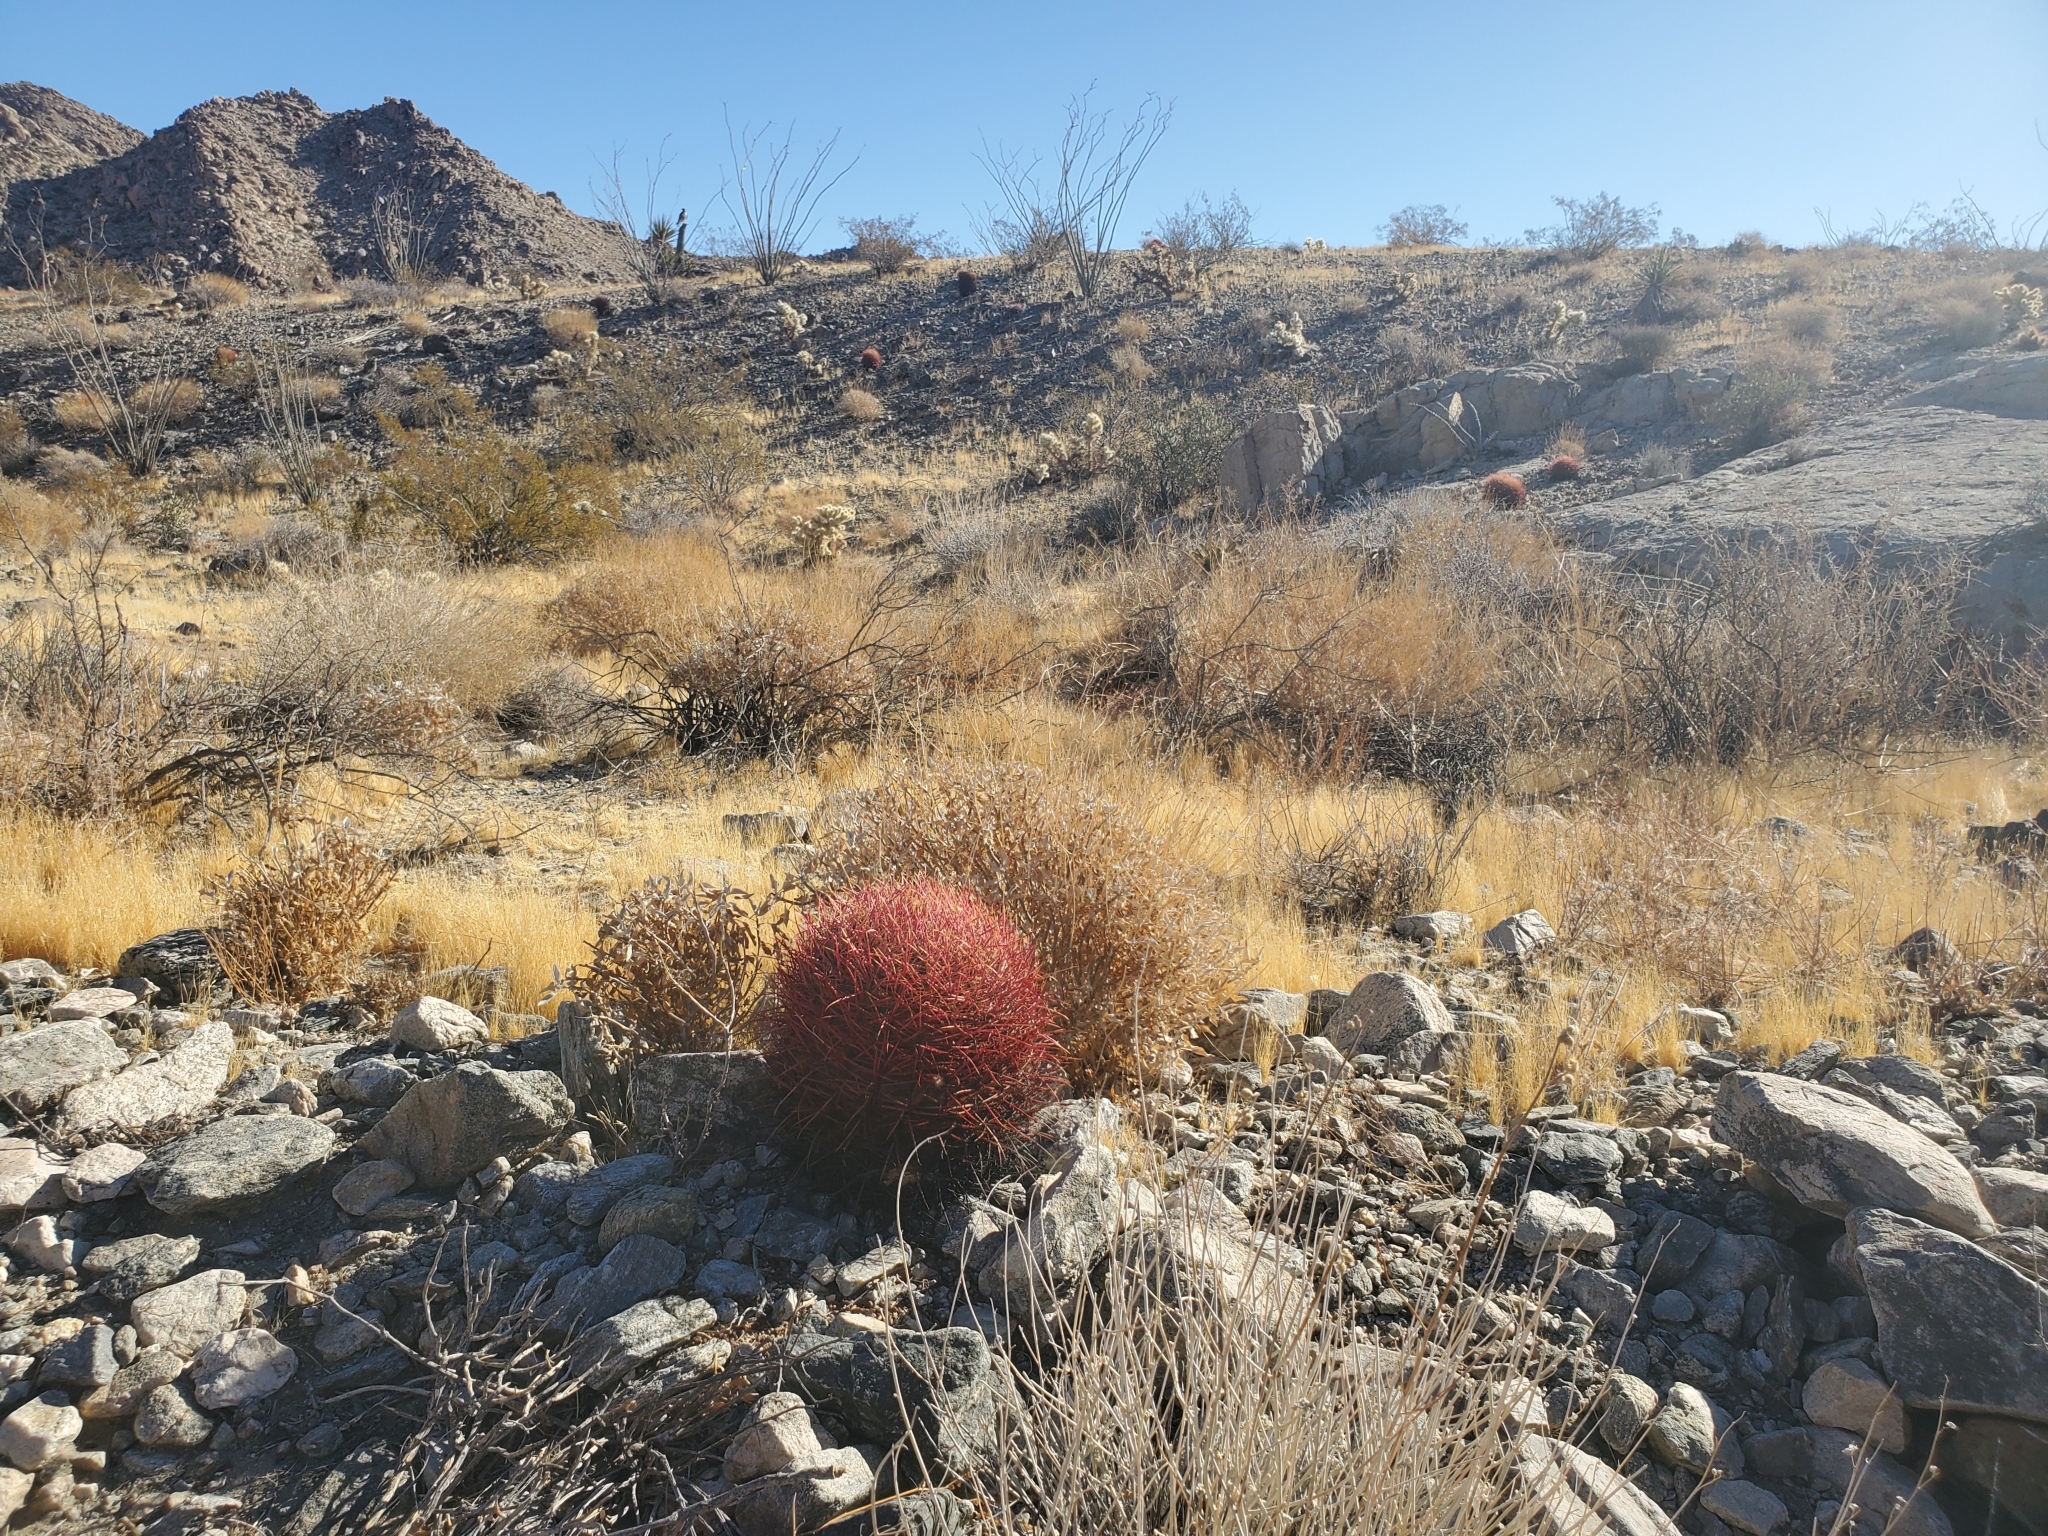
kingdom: Plantae
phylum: Tracheophyta
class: Magnoliopsida
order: Caryophyllales
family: Cactaceae
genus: Ferocactus
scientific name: Ferocactus cylindraceus
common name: California barrel cactus
